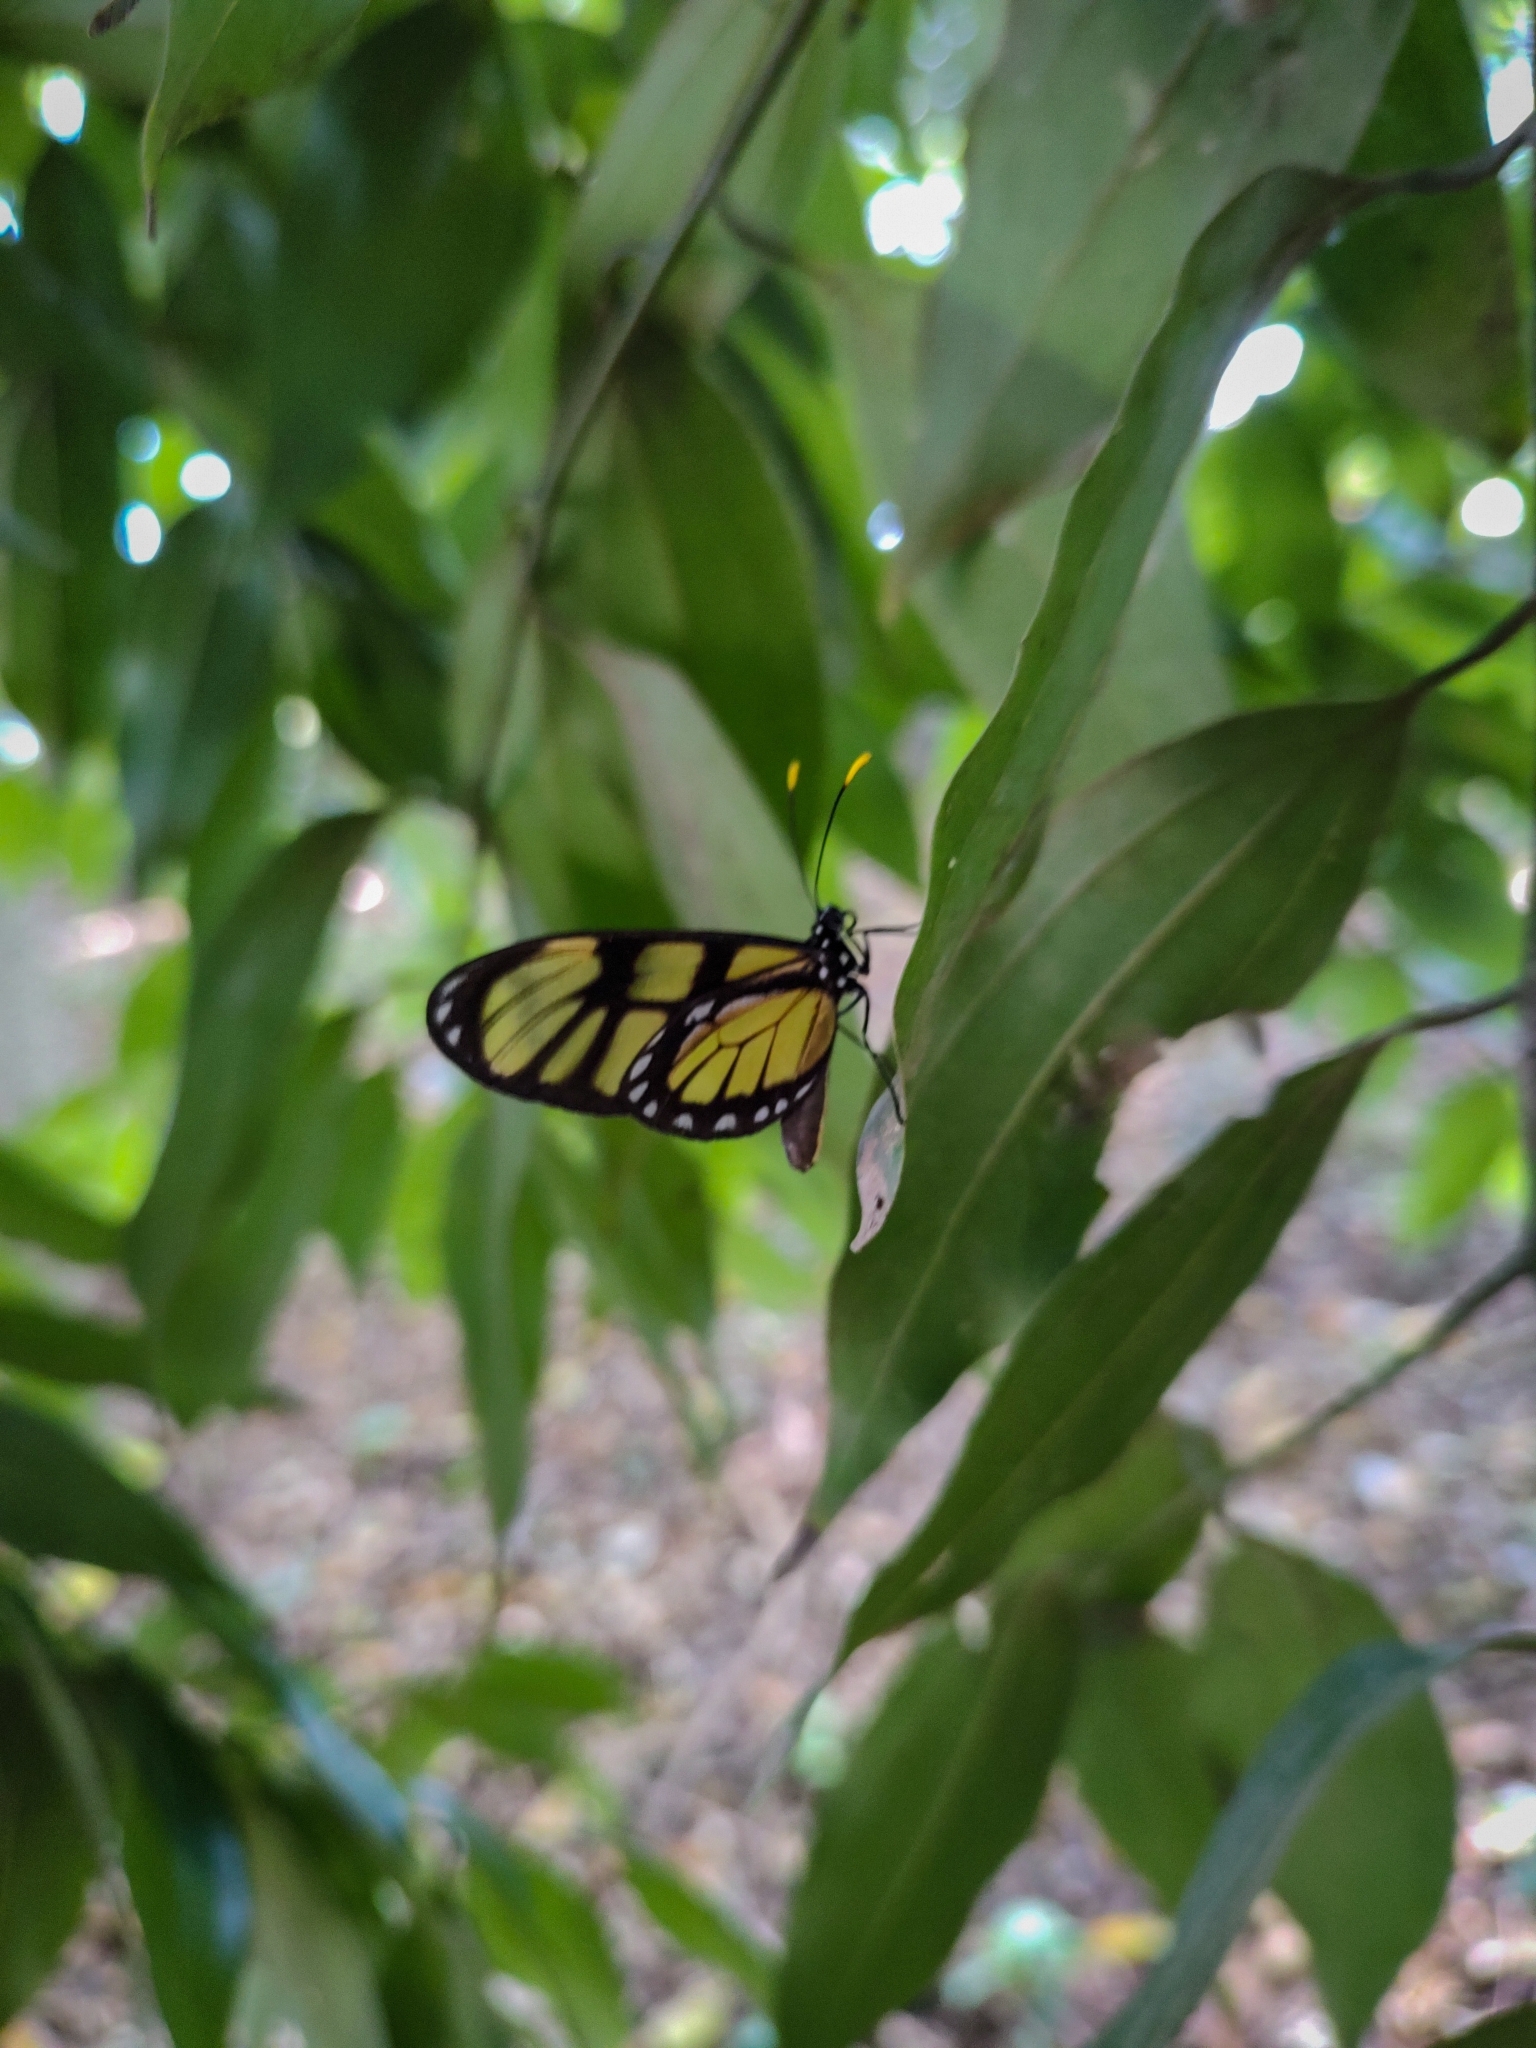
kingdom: Animalia
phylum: Arthropoda
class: Insecta
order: Lepidoptera
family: Nymphalidae
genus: Dircenna
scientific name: Dircenna dero
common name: Dero clearwing
